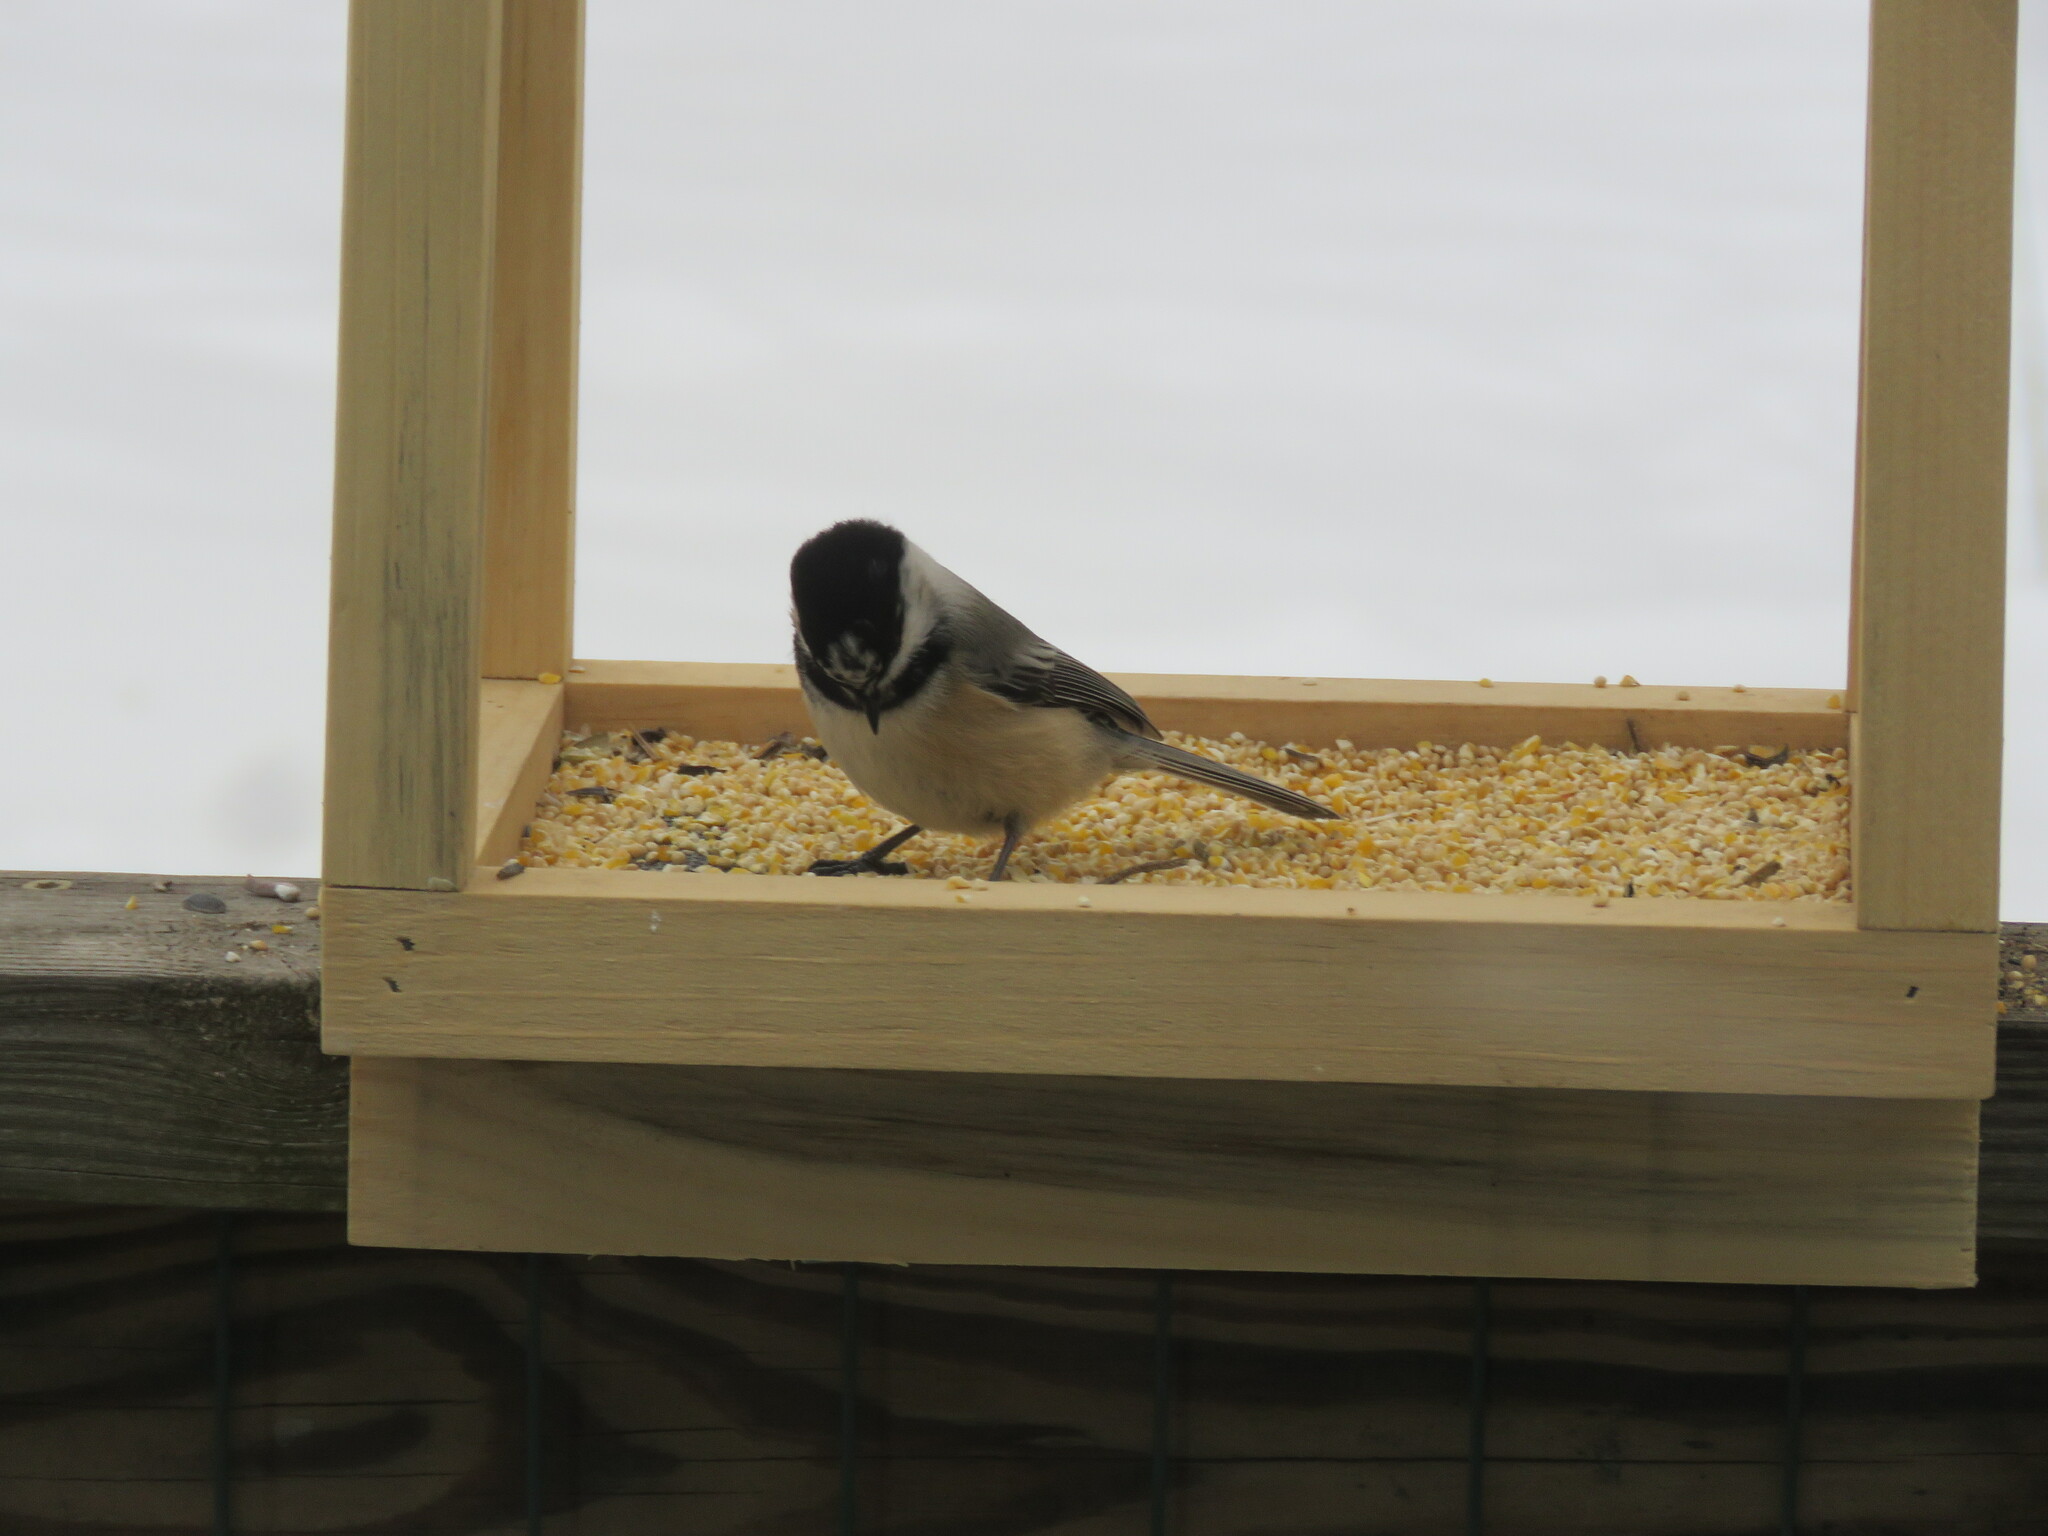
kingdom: Animalia
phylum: Chordata
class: Aves
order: Passeriformes
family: Paridae
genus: Poecile
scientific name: Poecile atricapillus
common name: Black-capped chickadee
